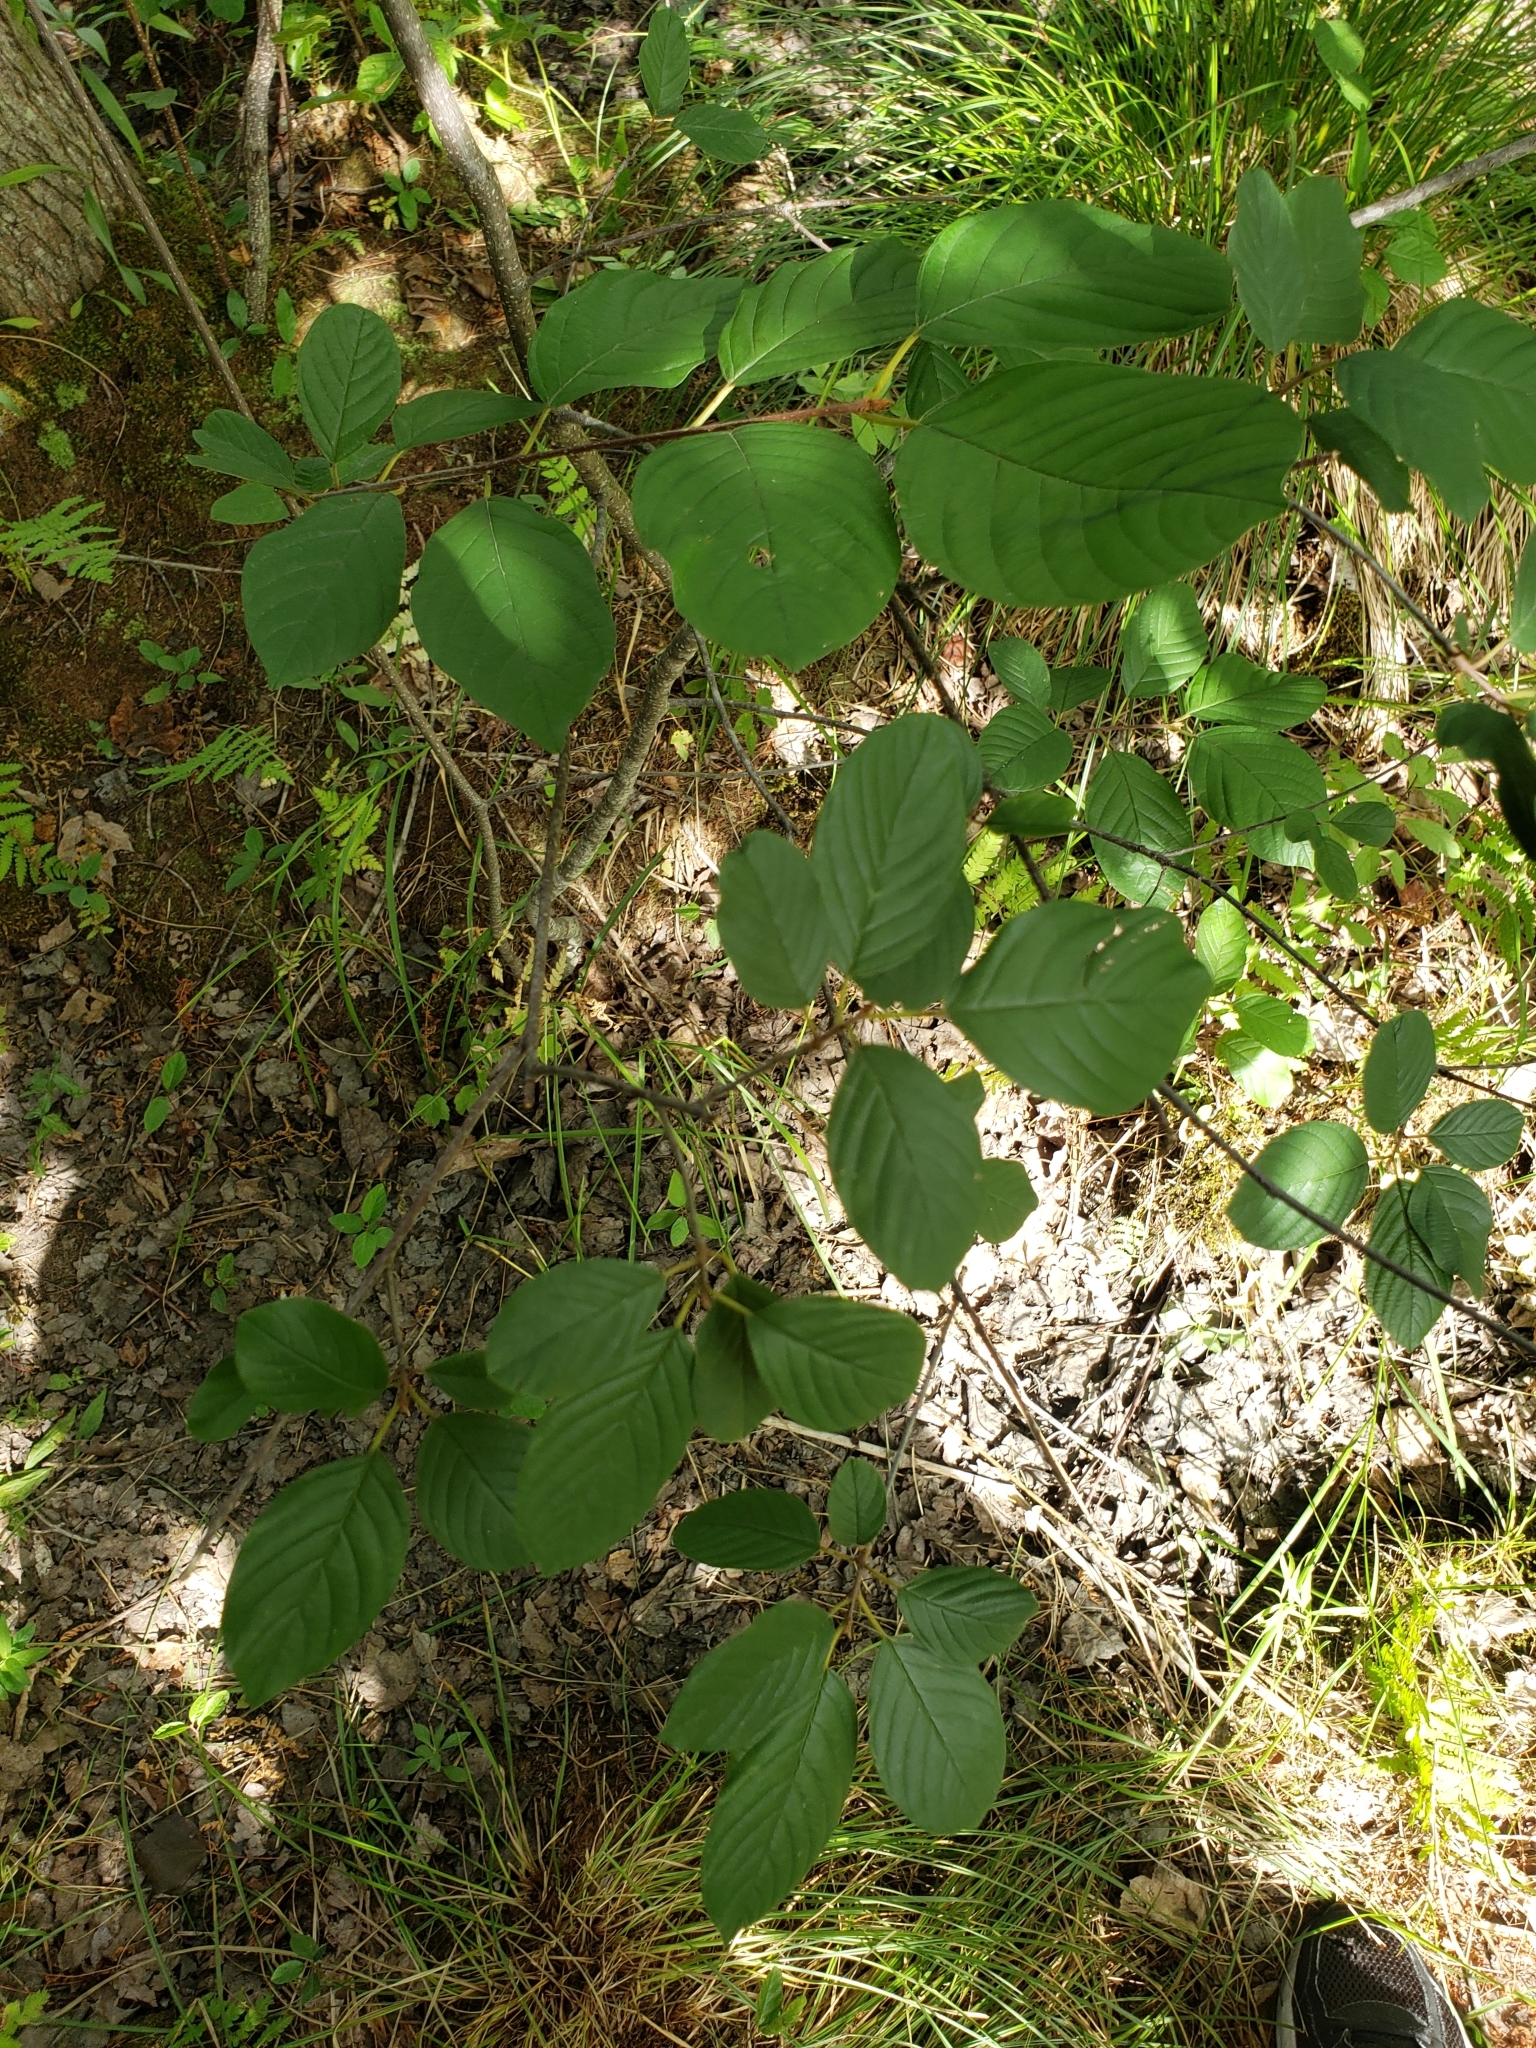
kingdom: Plantae
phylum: Tracheophyta
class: Magnoliopsida
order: Rosales
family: Rhamnaceae
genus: Frangula
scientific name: Frangula alnus
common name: Alder buckthorn
